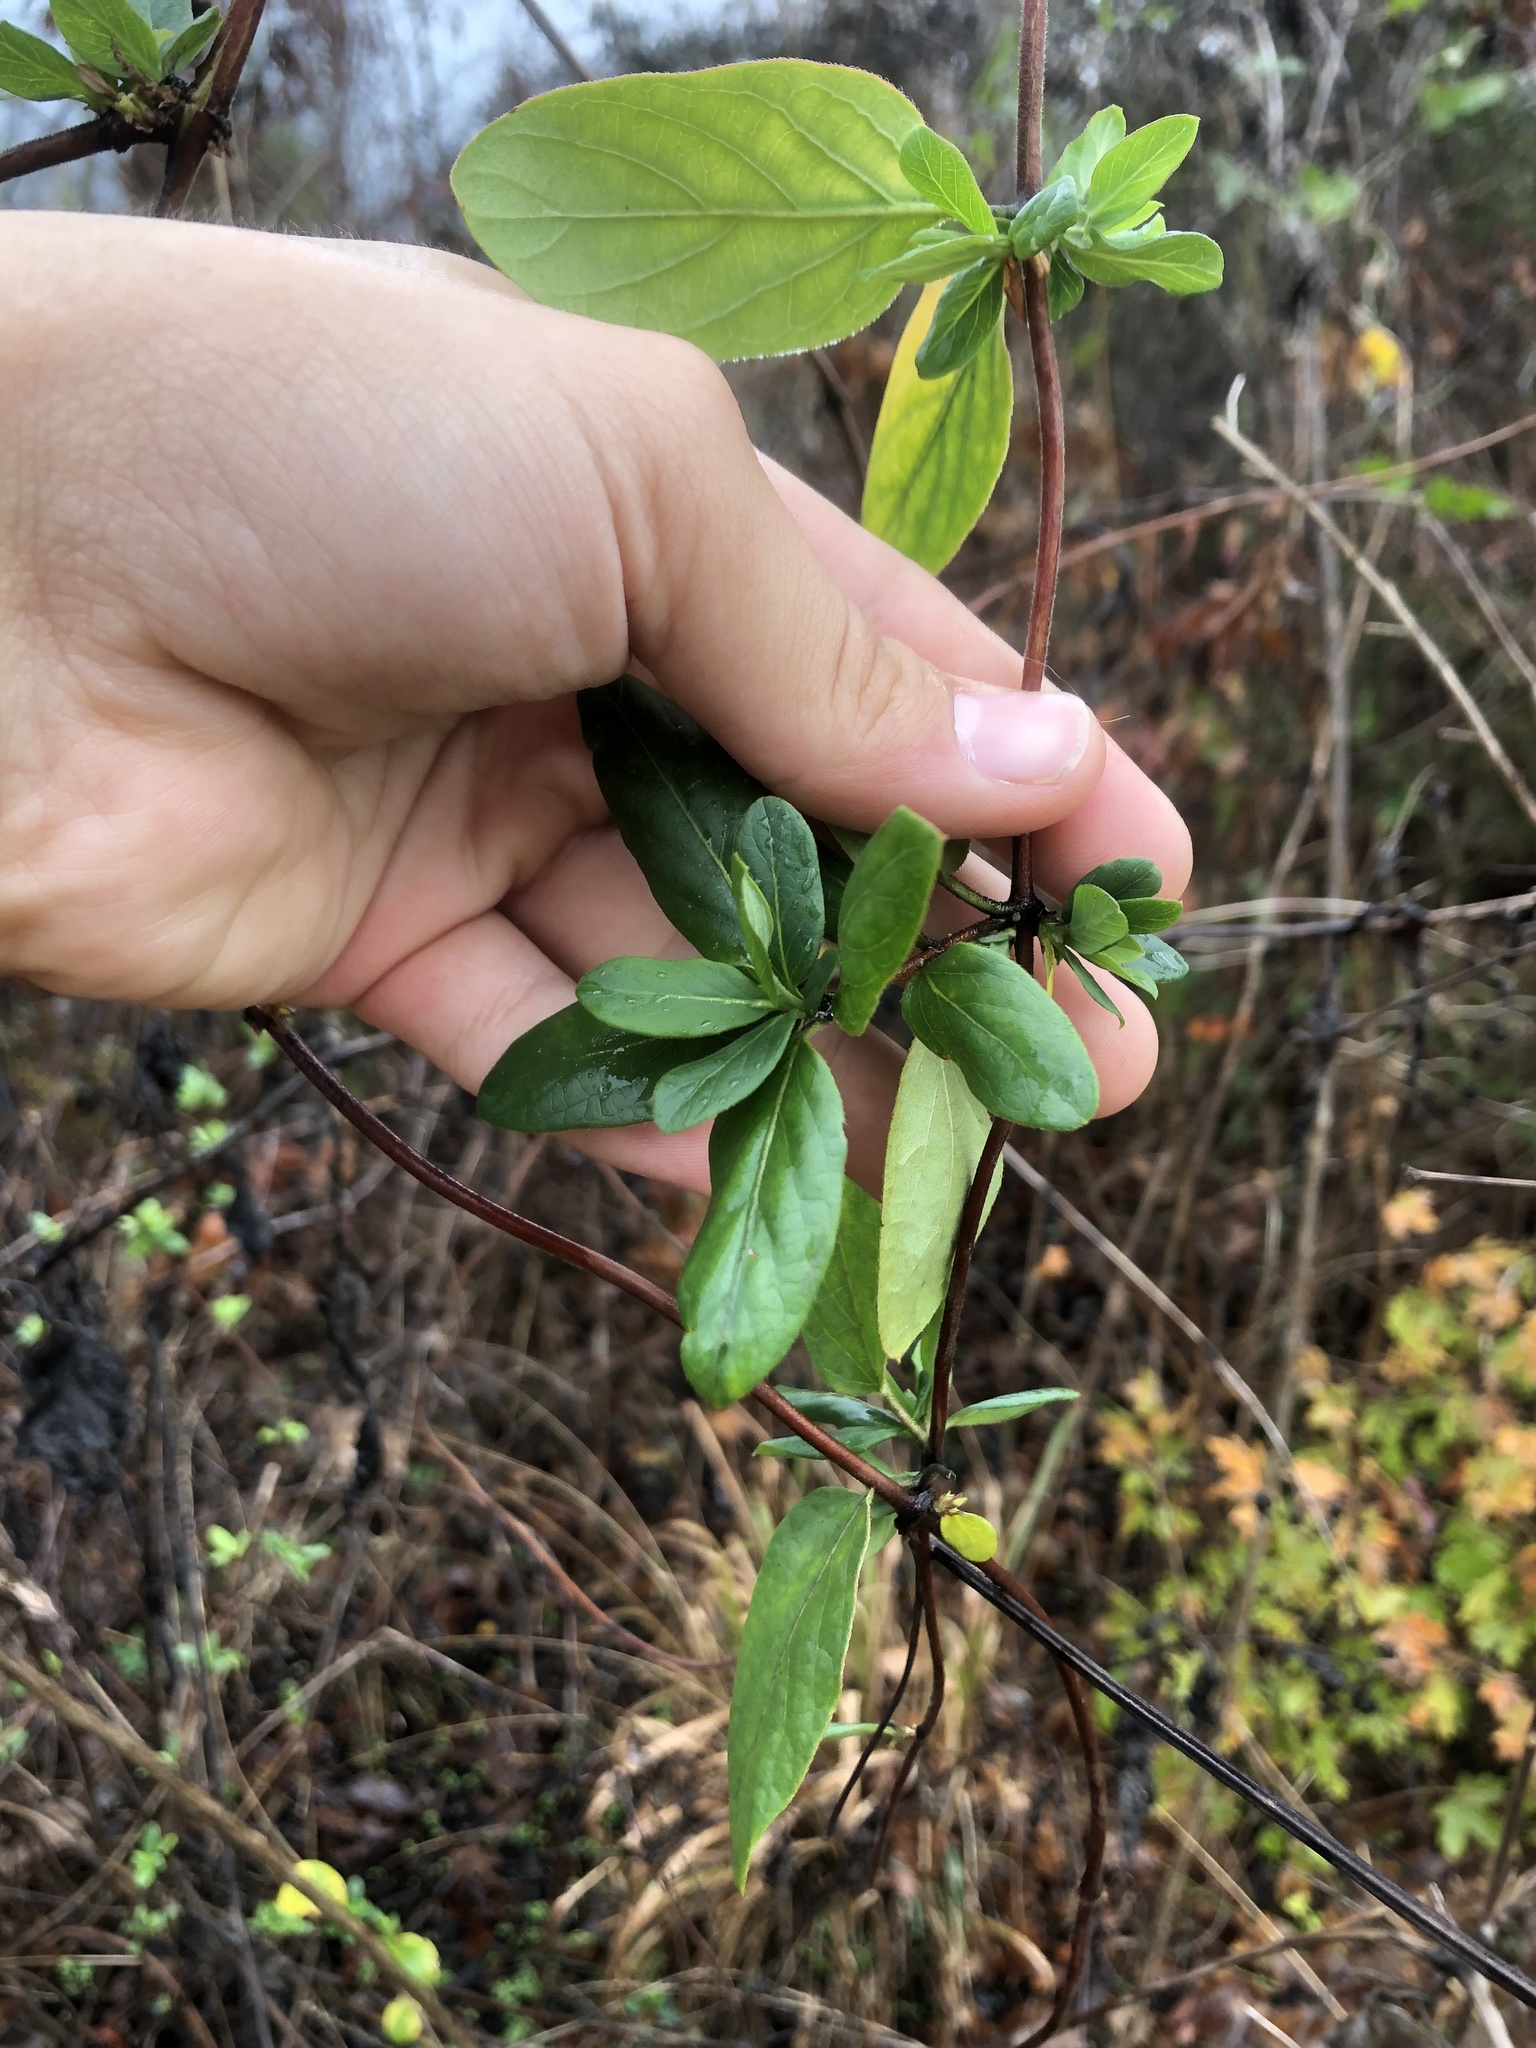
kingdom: Plantae
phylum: Tracheophyta
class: Magnoliopsida
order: Dipsacales
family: Caprifoliaceae
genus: Lonicera
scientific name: Lonicera japonica
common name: Japanese honeysuckle
